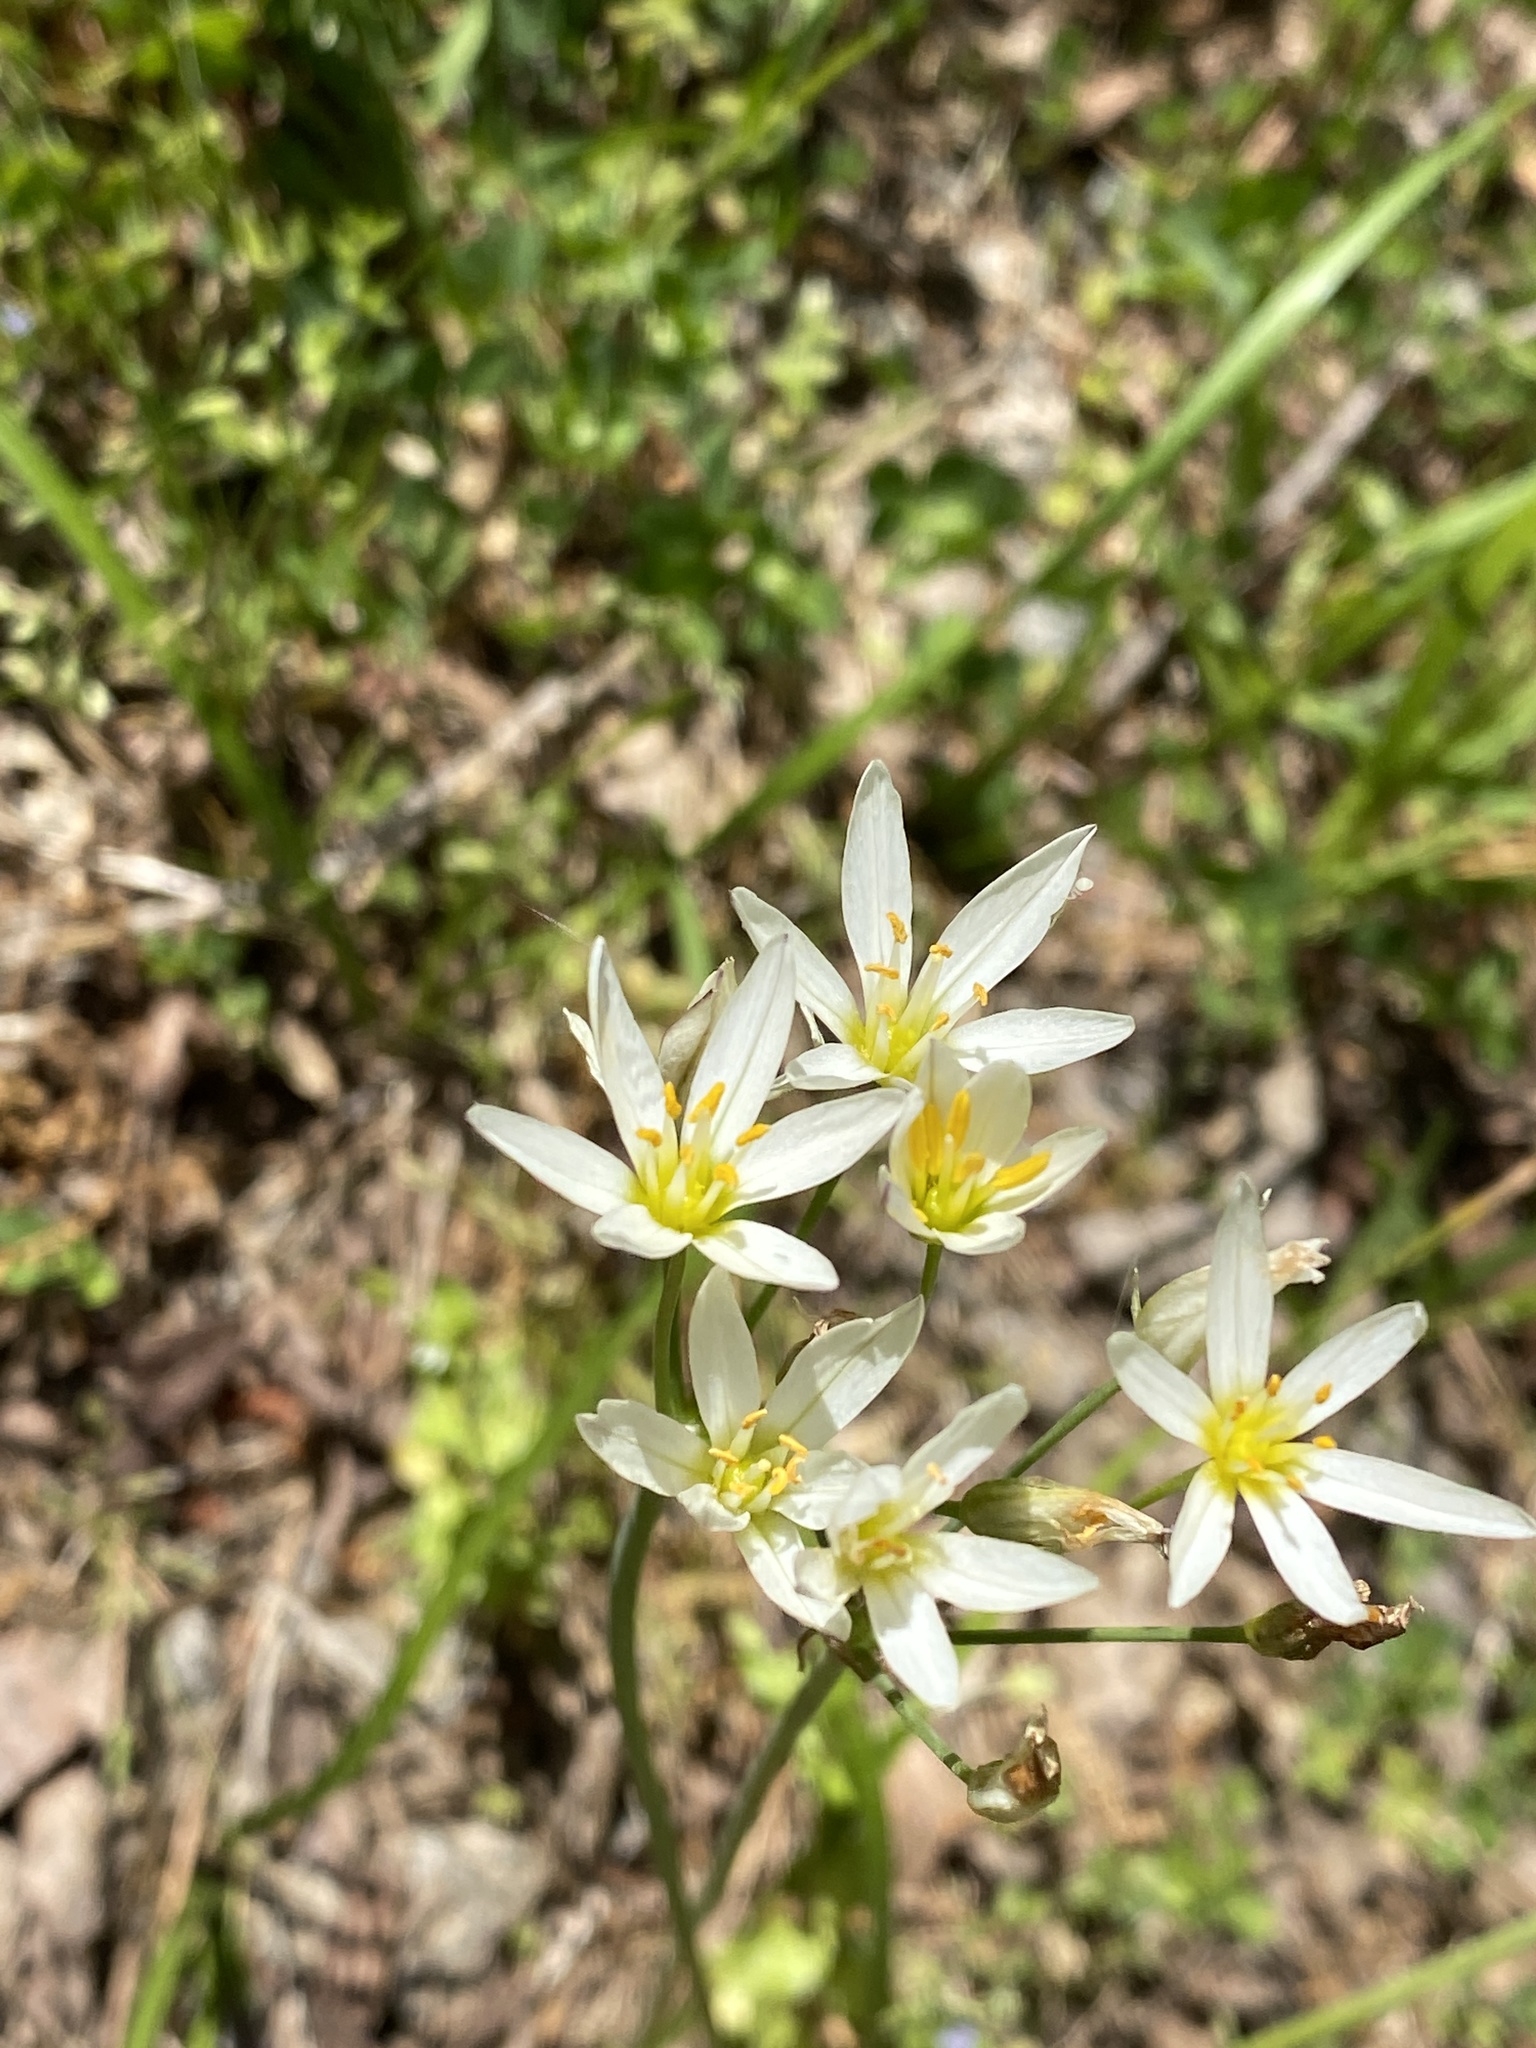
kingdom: Plantae
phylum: Tracheophyta
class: Liliopsida
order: Asparagales
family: Amaryllidaceae
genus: Nothoscordum
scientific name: Nothoscordum bivalve
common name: Crow-poison
